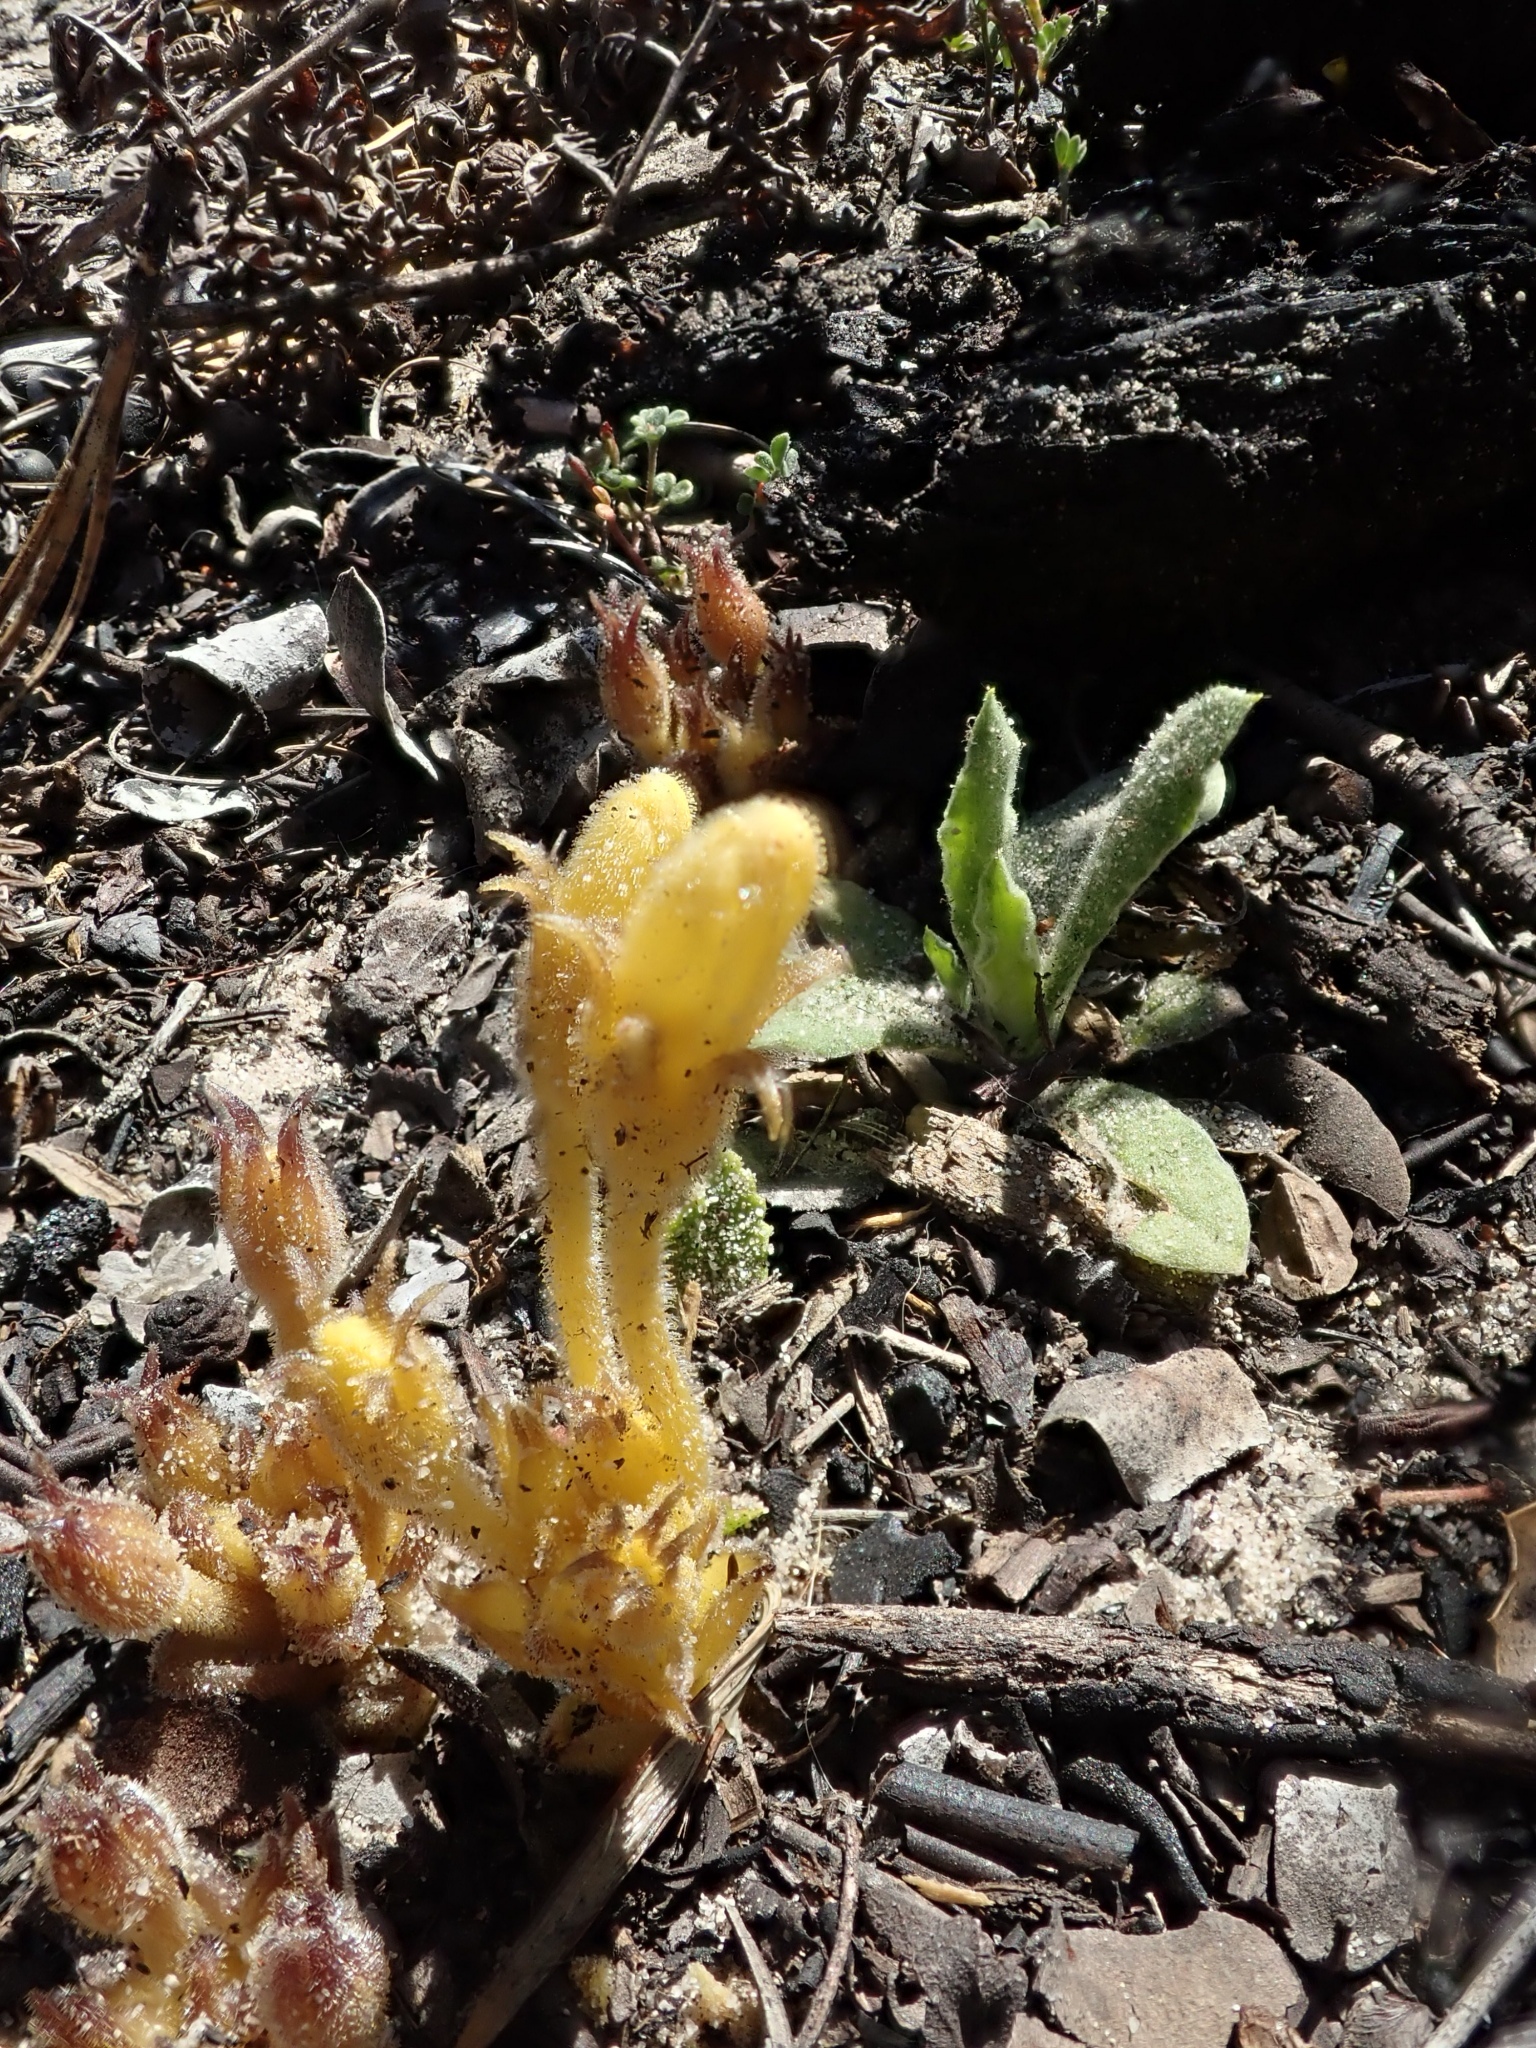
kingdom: Plantae
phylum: Tracheophyta
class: Magnoliopsida
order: Lamiales
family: Orobanchaceae
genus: Aphyllon
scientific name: Aphyllon franciscanum
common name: San francisco broomrape
